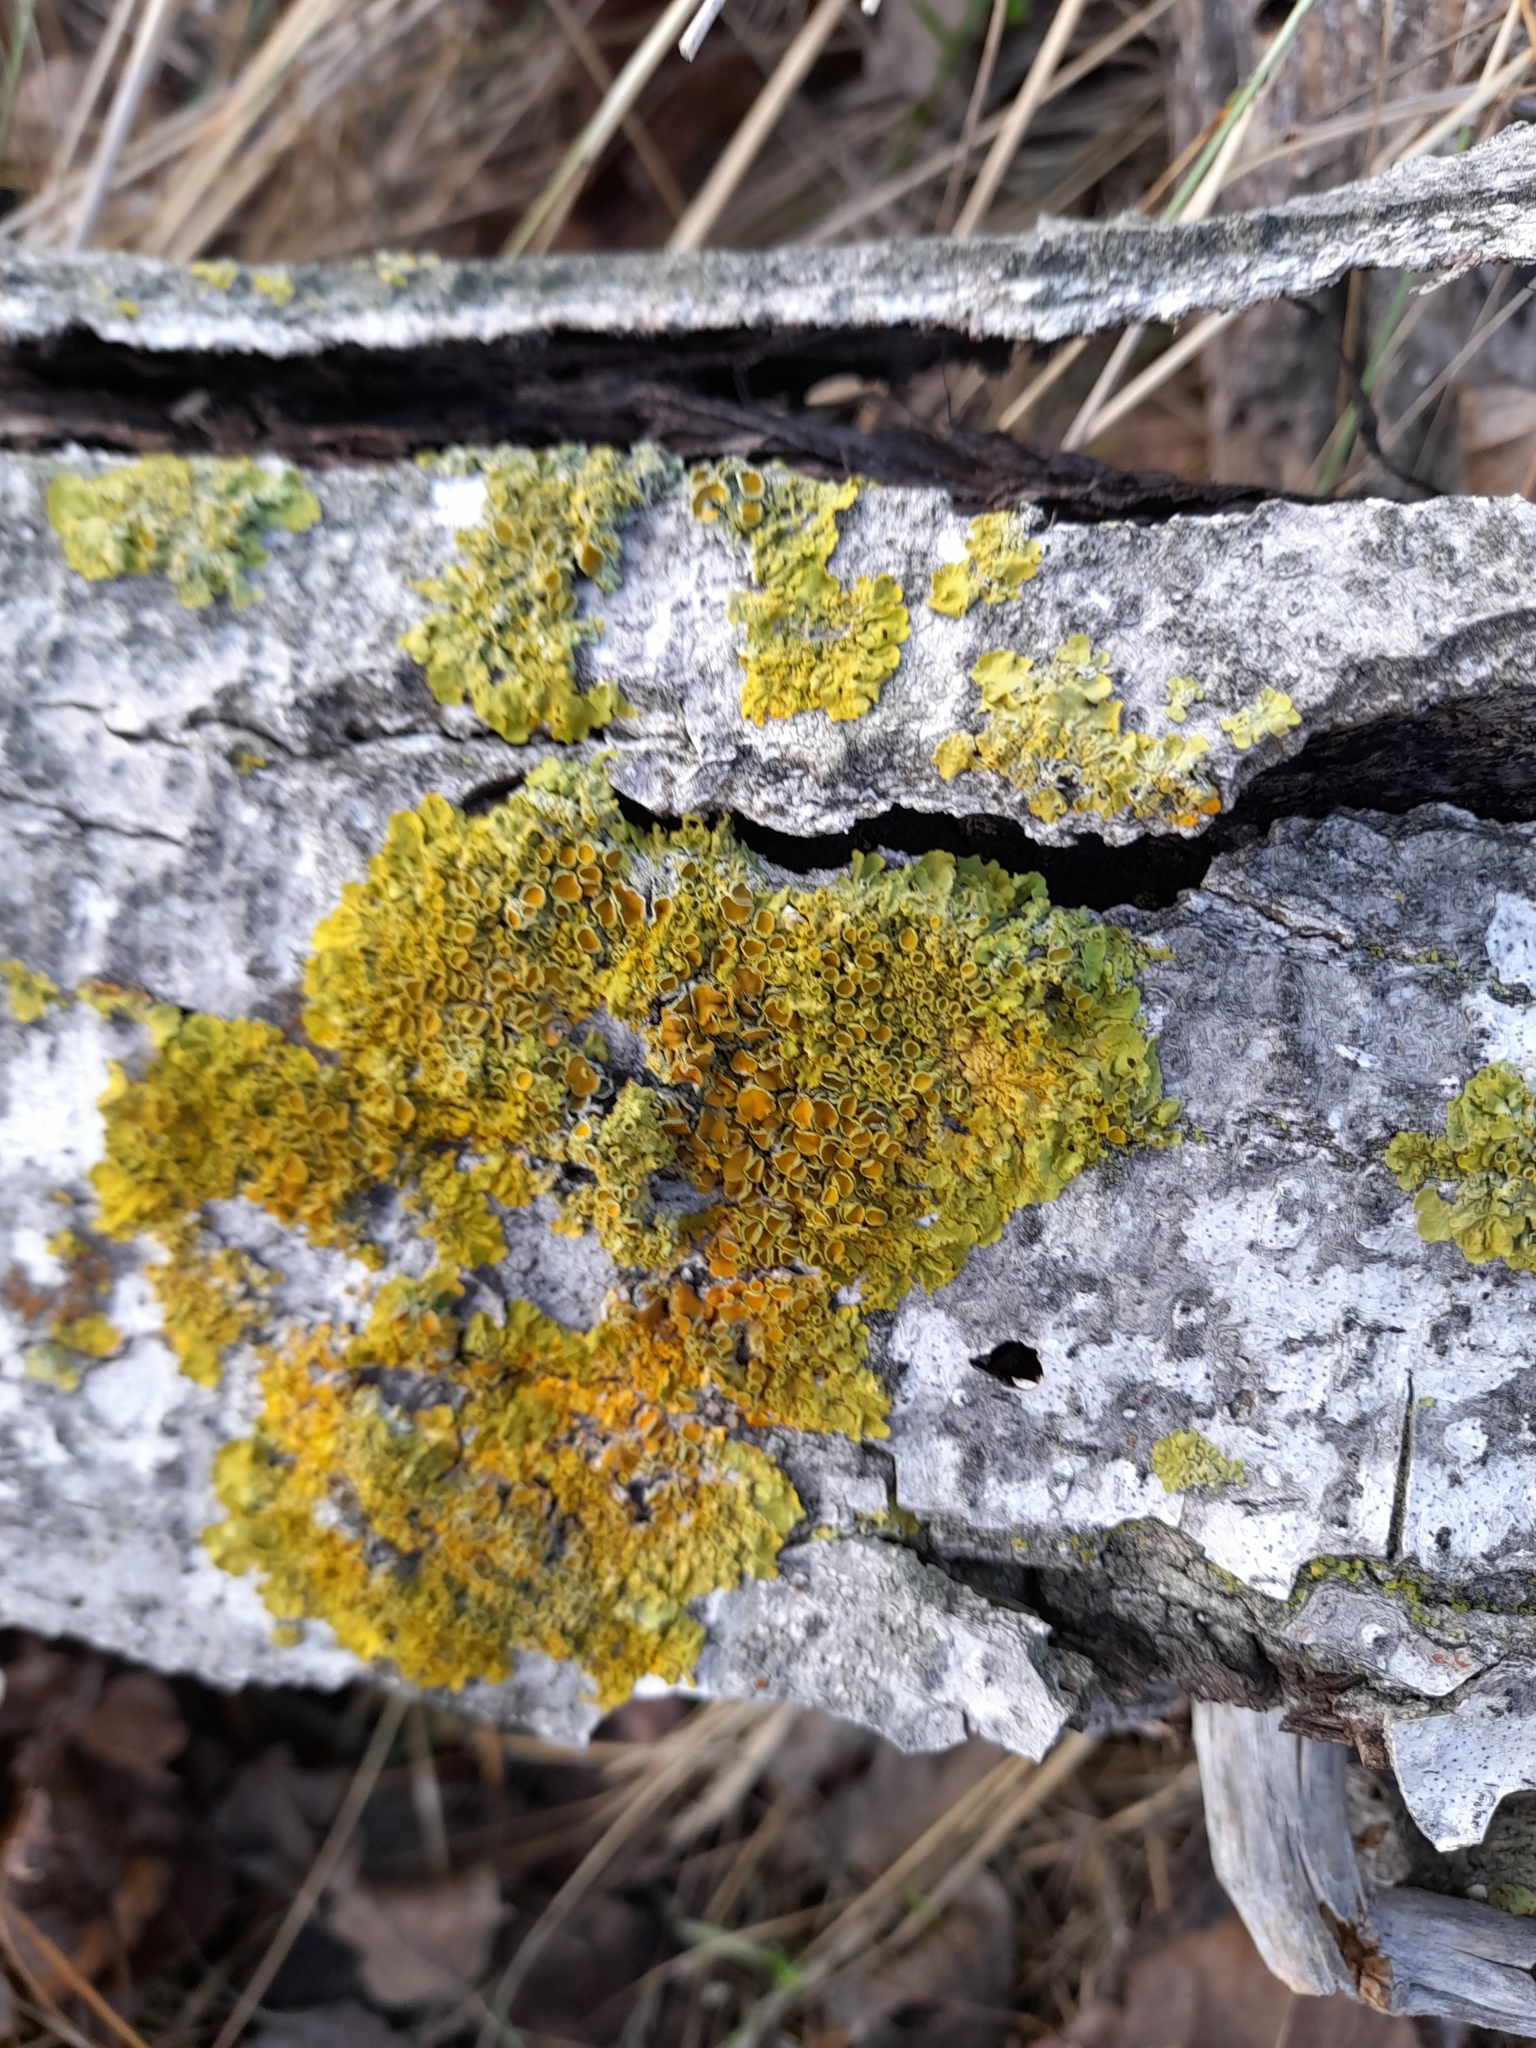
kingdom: Fungi
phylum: Ascomycota
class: Lecanoromycetes
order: Teloschistales
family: Teloschistaceae
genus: Xanthoria
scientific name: Xanthoria parietina
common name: Common orange lichen
